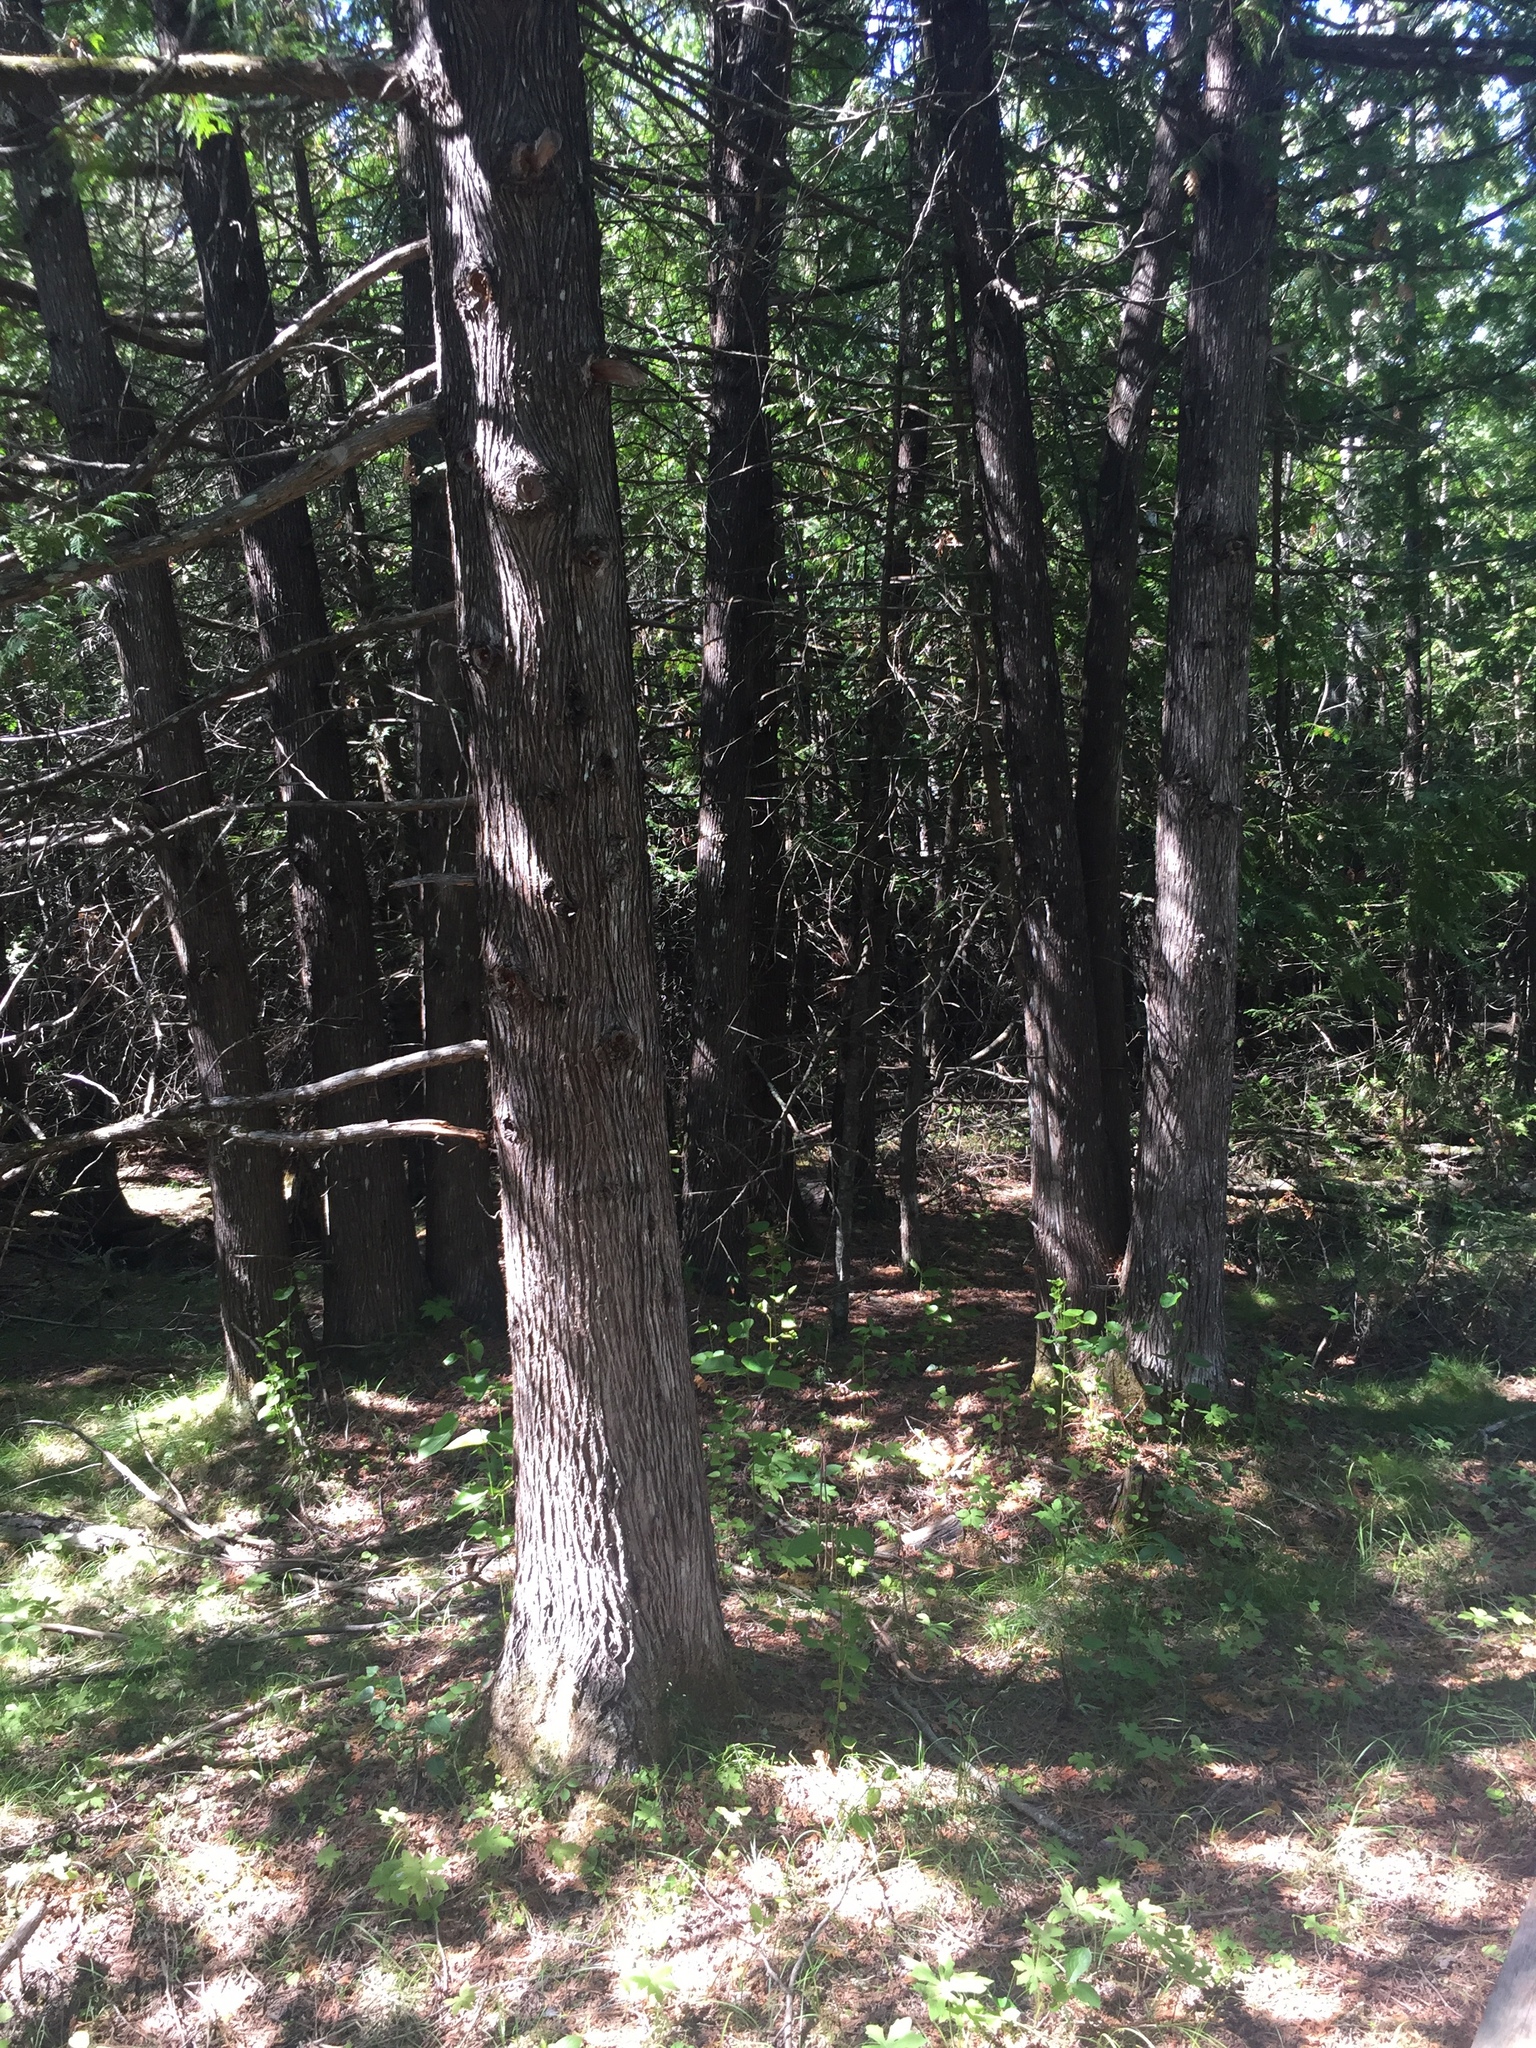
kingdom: Plantae
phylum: Tracheophyta
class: Pinopsida
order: Pinales
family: Cupressaceae
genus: Thuja
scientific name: Thuja occidentalis
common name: Northern white-cedar
